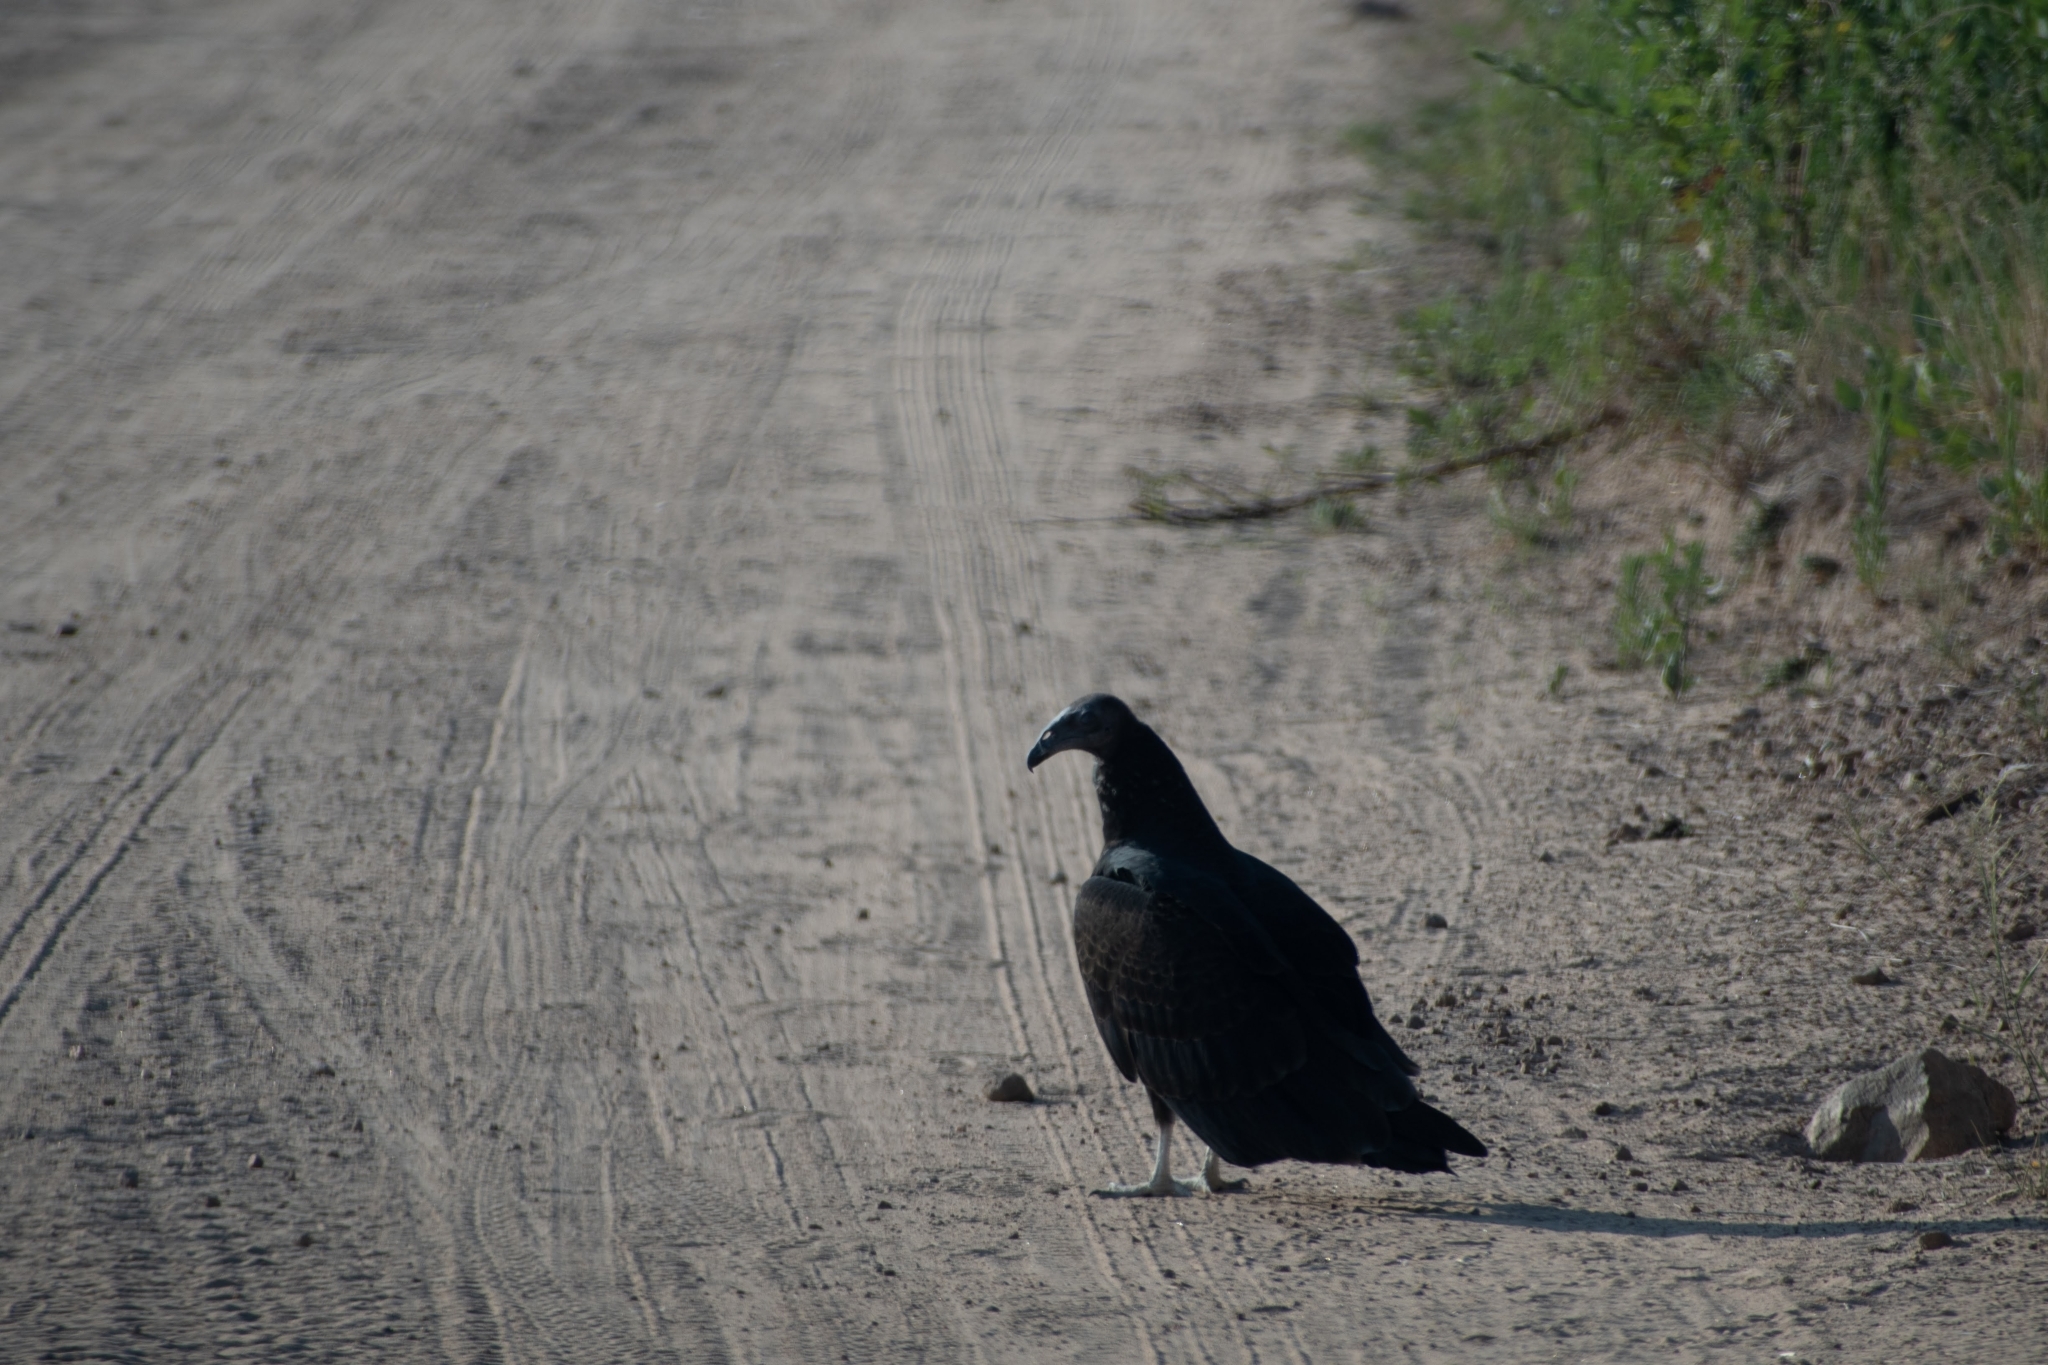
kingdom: Animalia
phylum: Chordata
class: Aves
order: Accipitriformes
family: Cathartidae
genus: Cathartes
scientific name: Cathartes aura
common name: Turkey vulture
